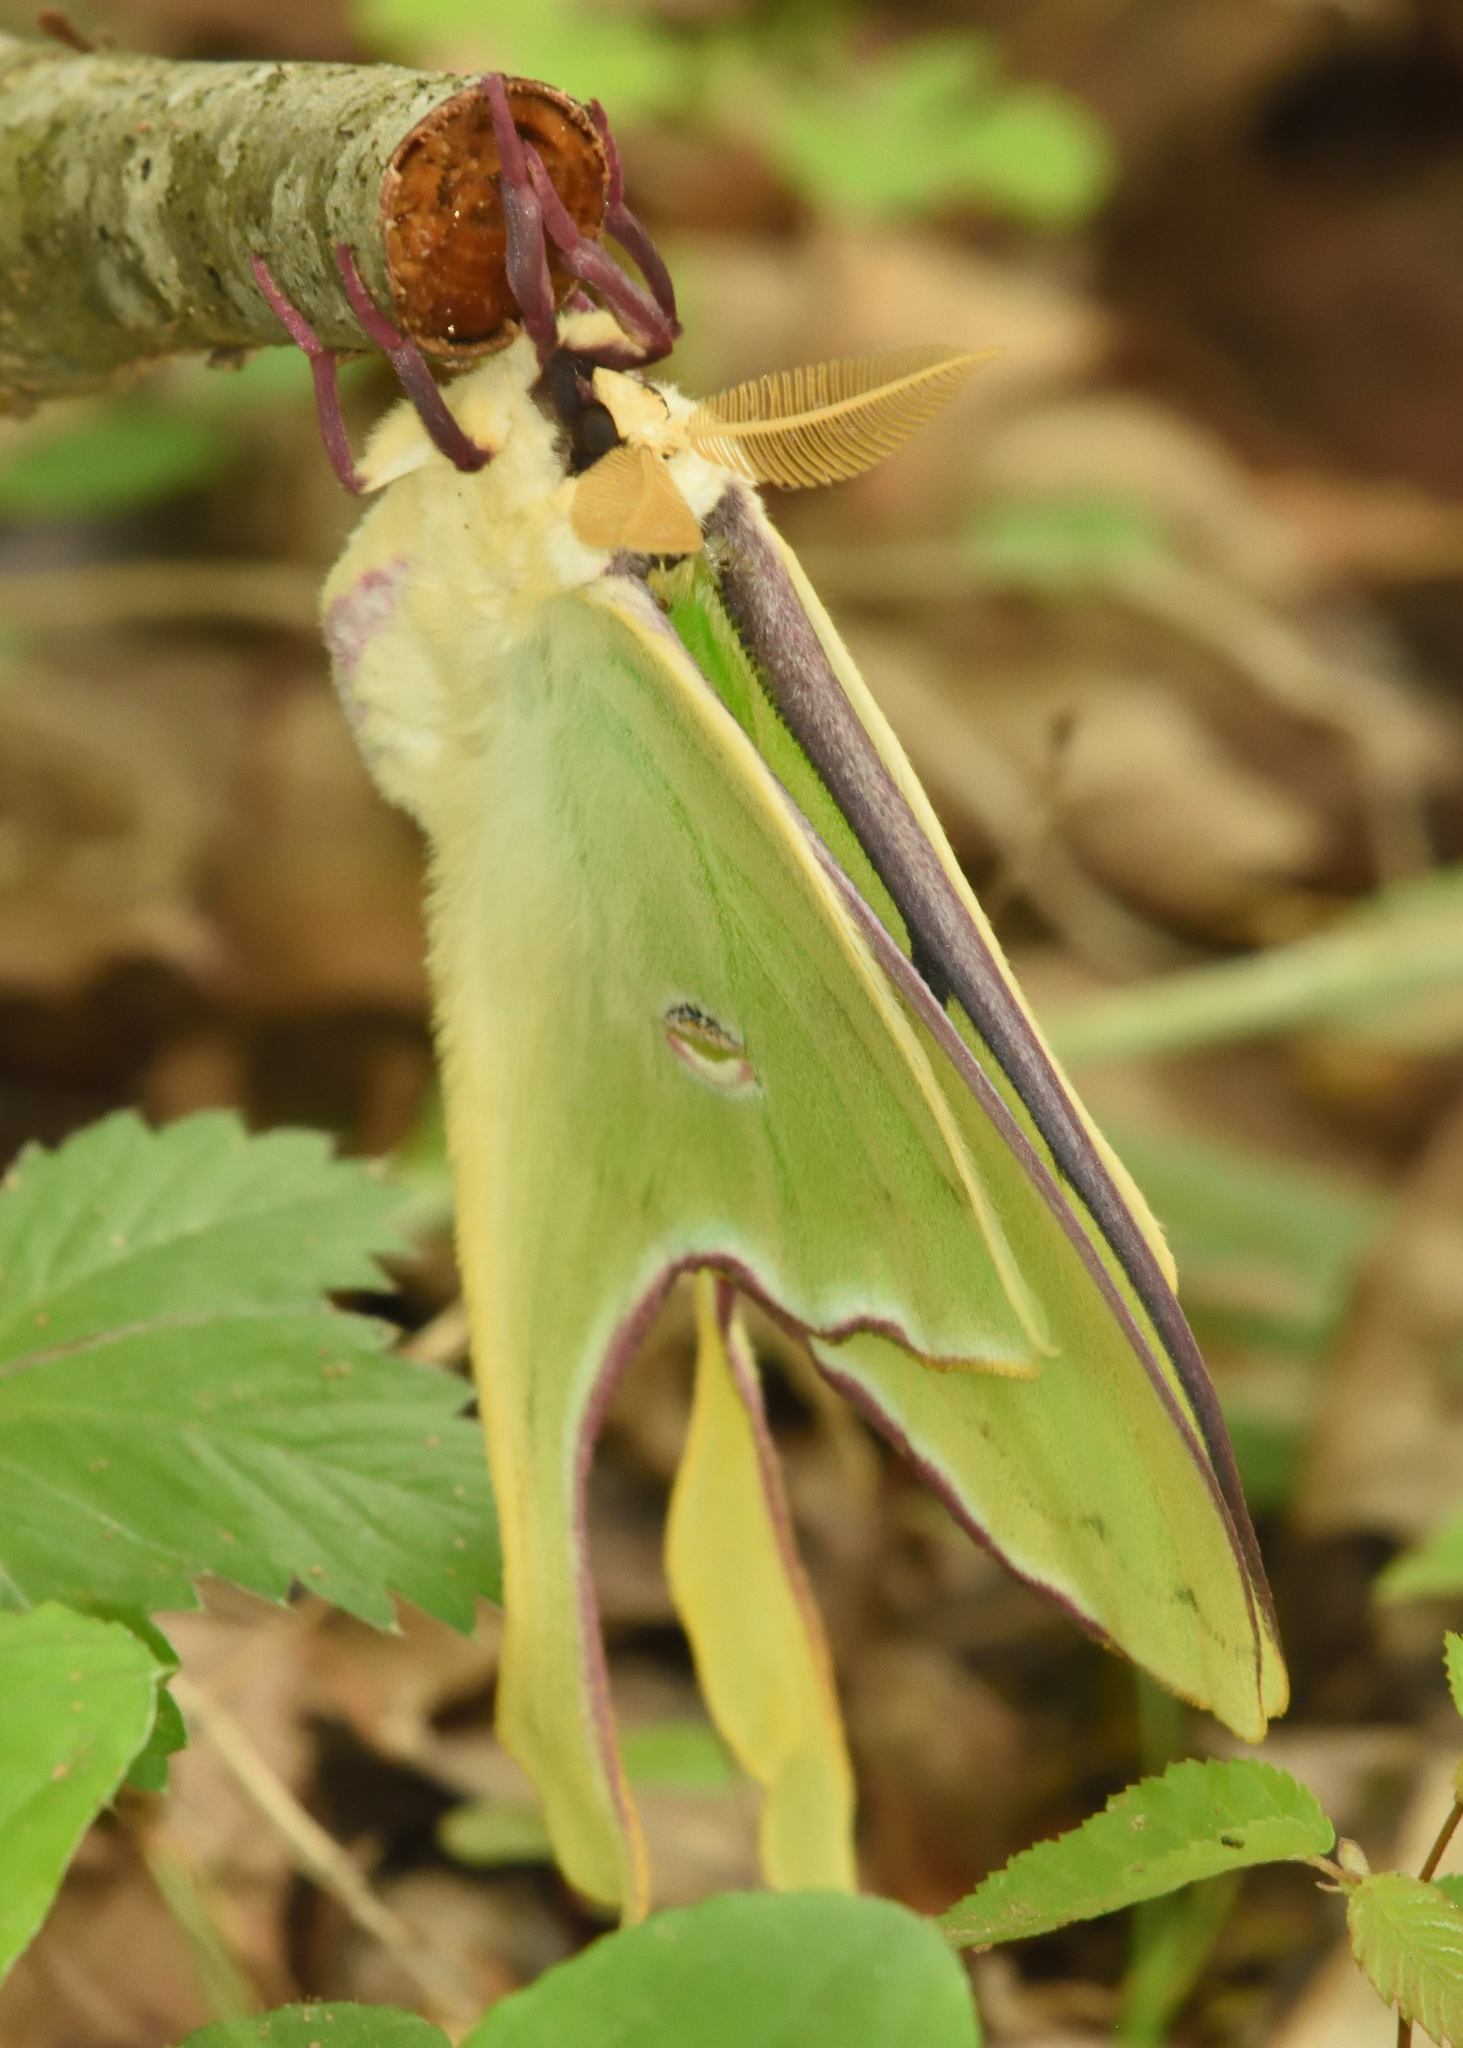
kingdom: Animalia
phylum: Arthropoda
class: Insecta
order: Lepidoptera
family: Saturniidae
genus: Actias
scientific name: Actias luna
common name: Luna moth
